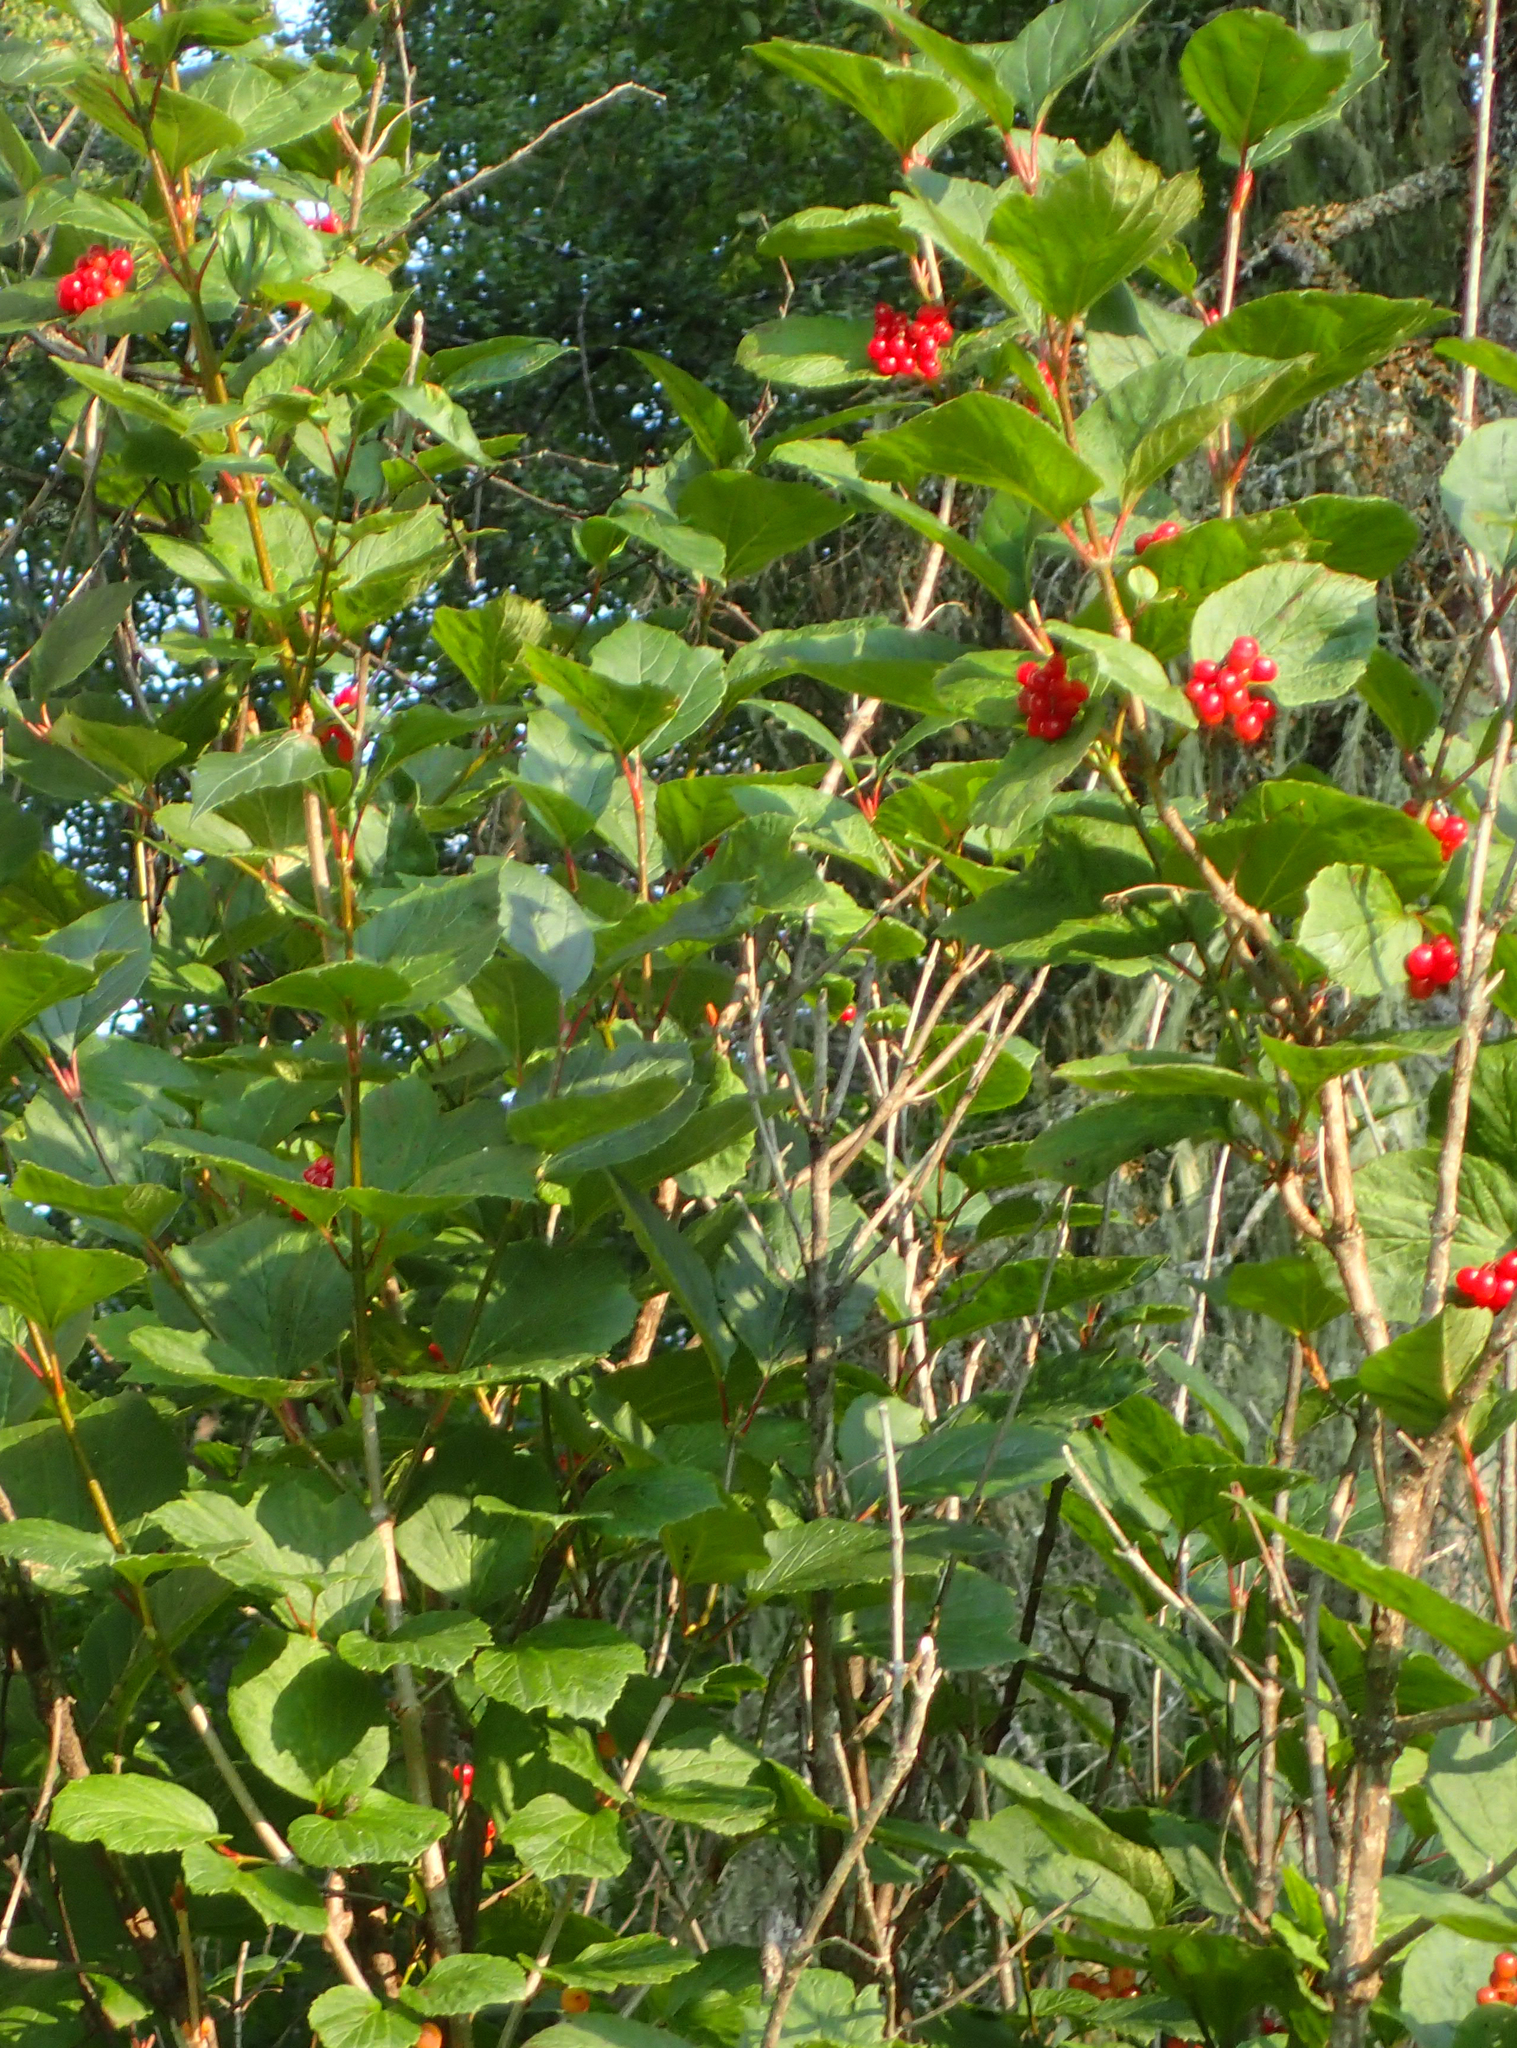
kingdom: Plantae
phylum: Tracheophyta
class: Magnoliopsida
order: Dipsacales
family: Viburnaceae
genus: Viburnum
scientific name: Viburnum edule
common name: Mooseberry
